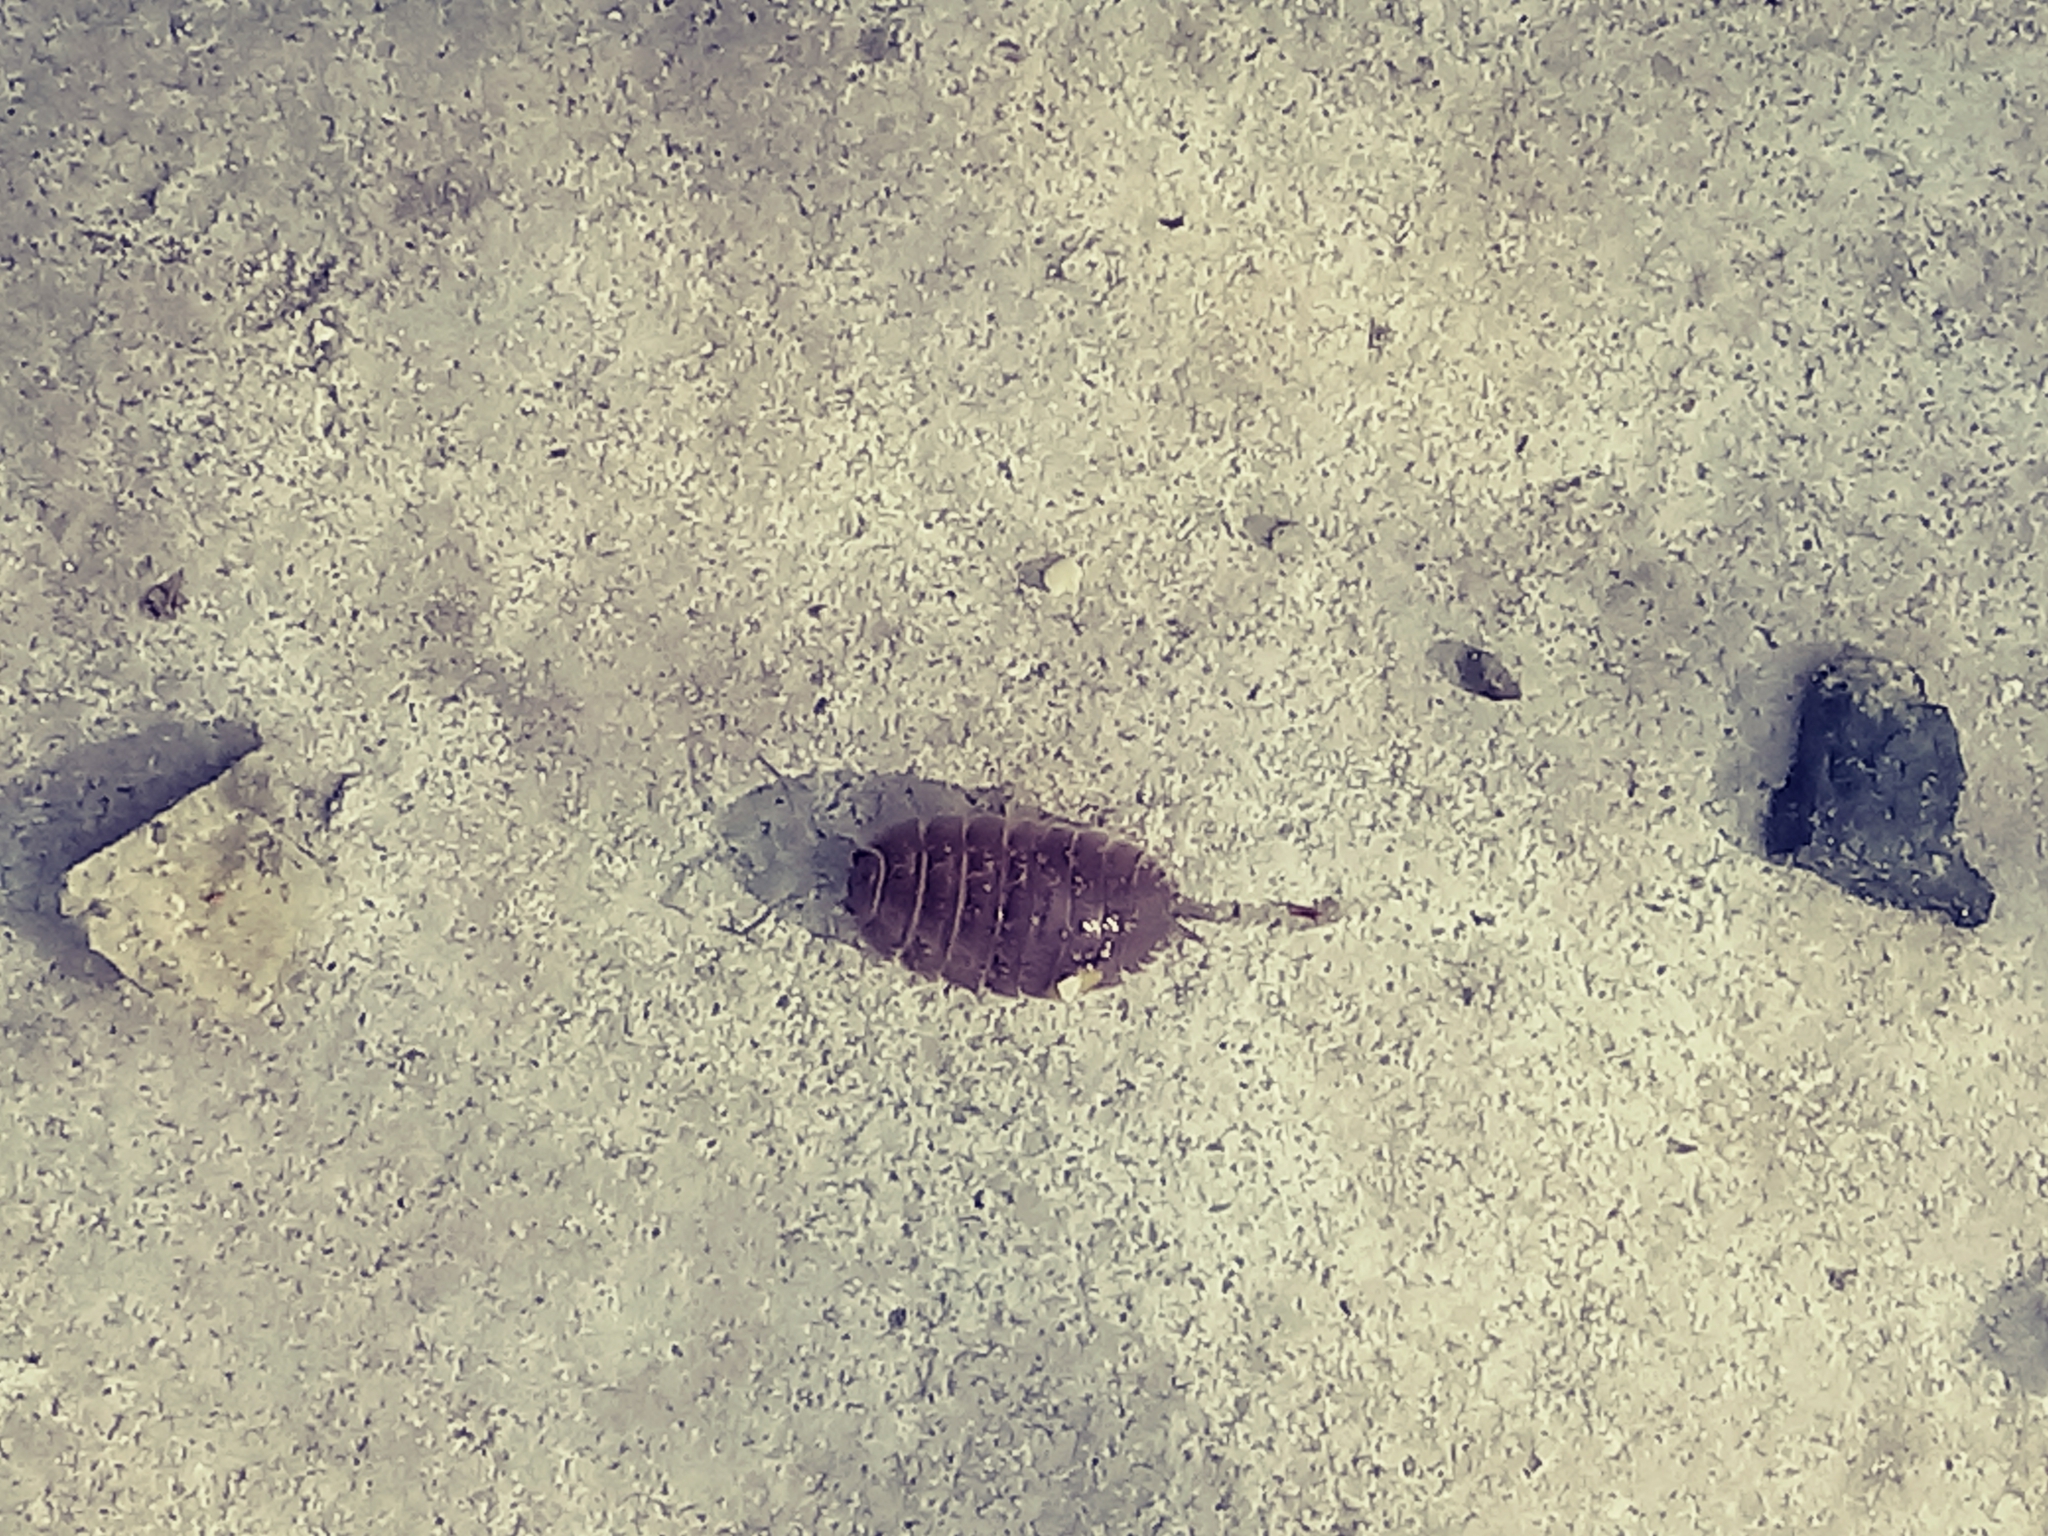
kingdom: Animalia
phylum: Arthropoda
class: Malacostraca
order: Isopoda
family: Porcellionidae
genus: Porcellio
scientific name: Porcellio laevis
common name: Swift woodlouse
